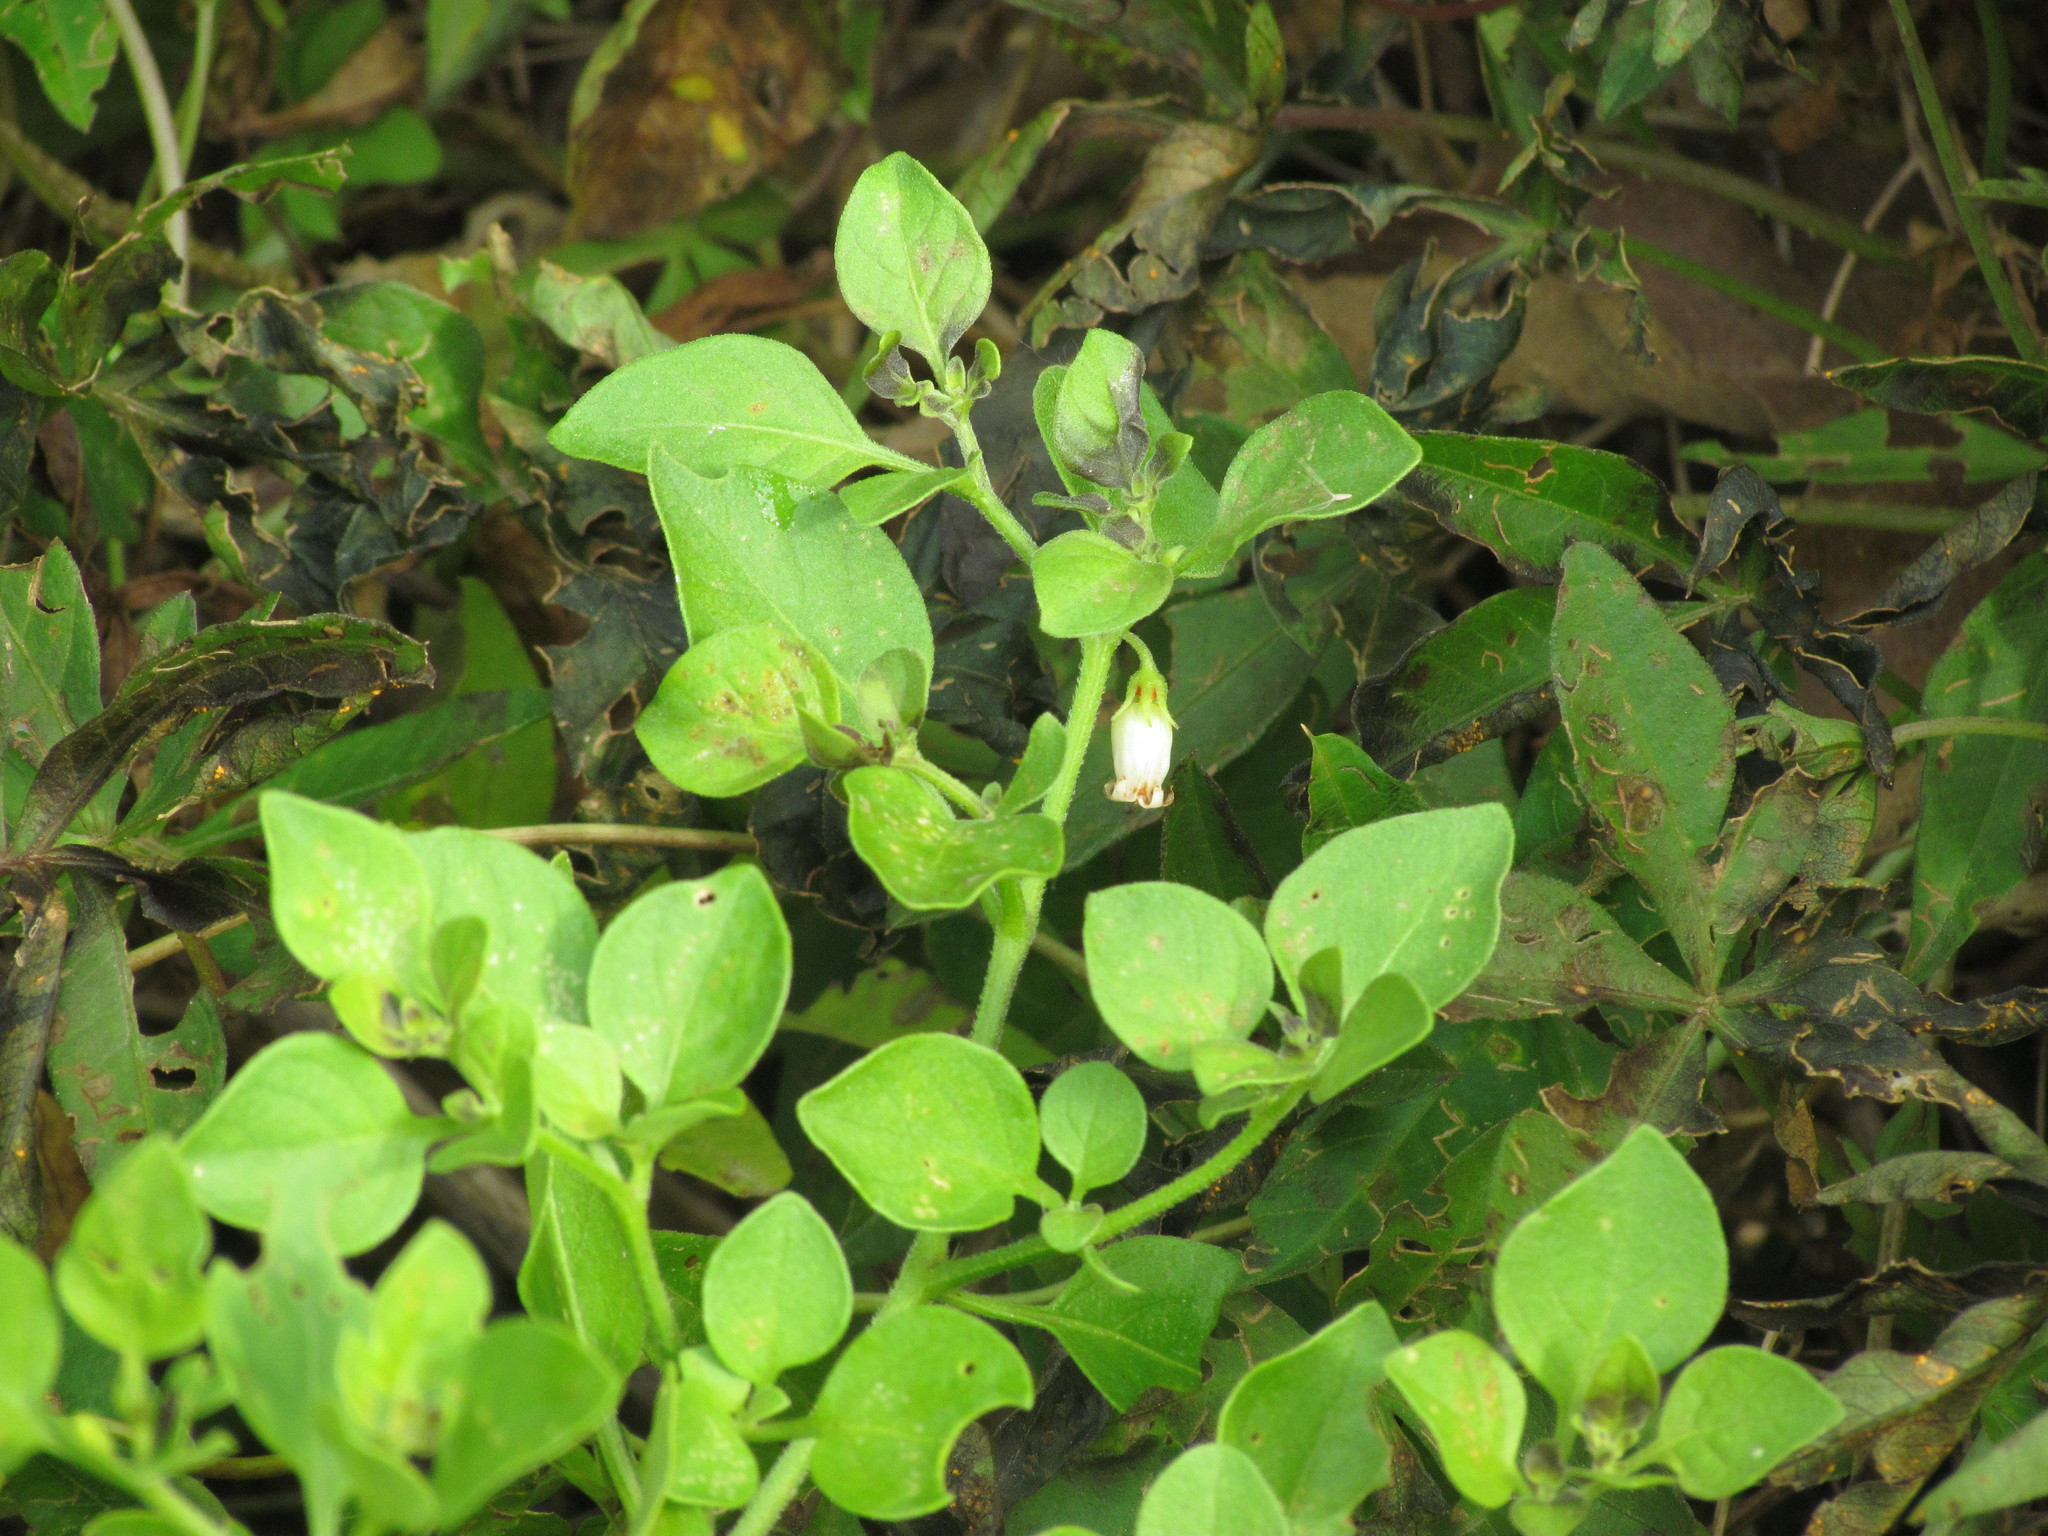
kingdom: Plantae
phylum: Tracheophyta
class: Magnoliopsida
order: Solanales
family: Solanaceae
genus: Salpichroa
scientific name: Salpichroa origanifolia
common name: Lily-of-the-valley-vine
